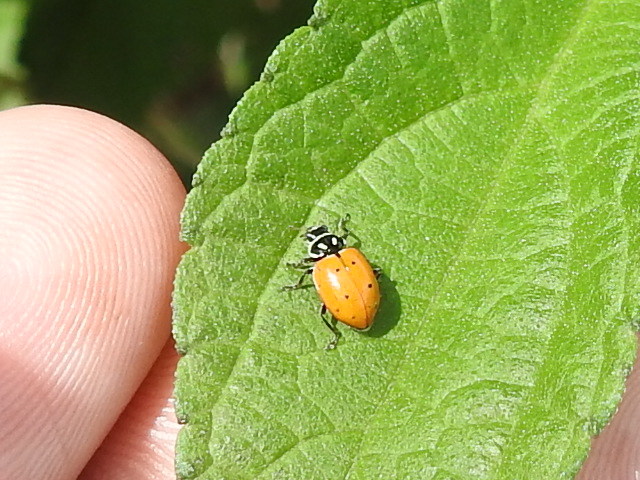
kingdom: Animalia
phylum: Arthropoda
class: Insecta
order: Coleoptera
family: Coccinellidae
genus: Hippodamia
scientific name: Hippodamia convergens
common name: Convergent lady beetle
